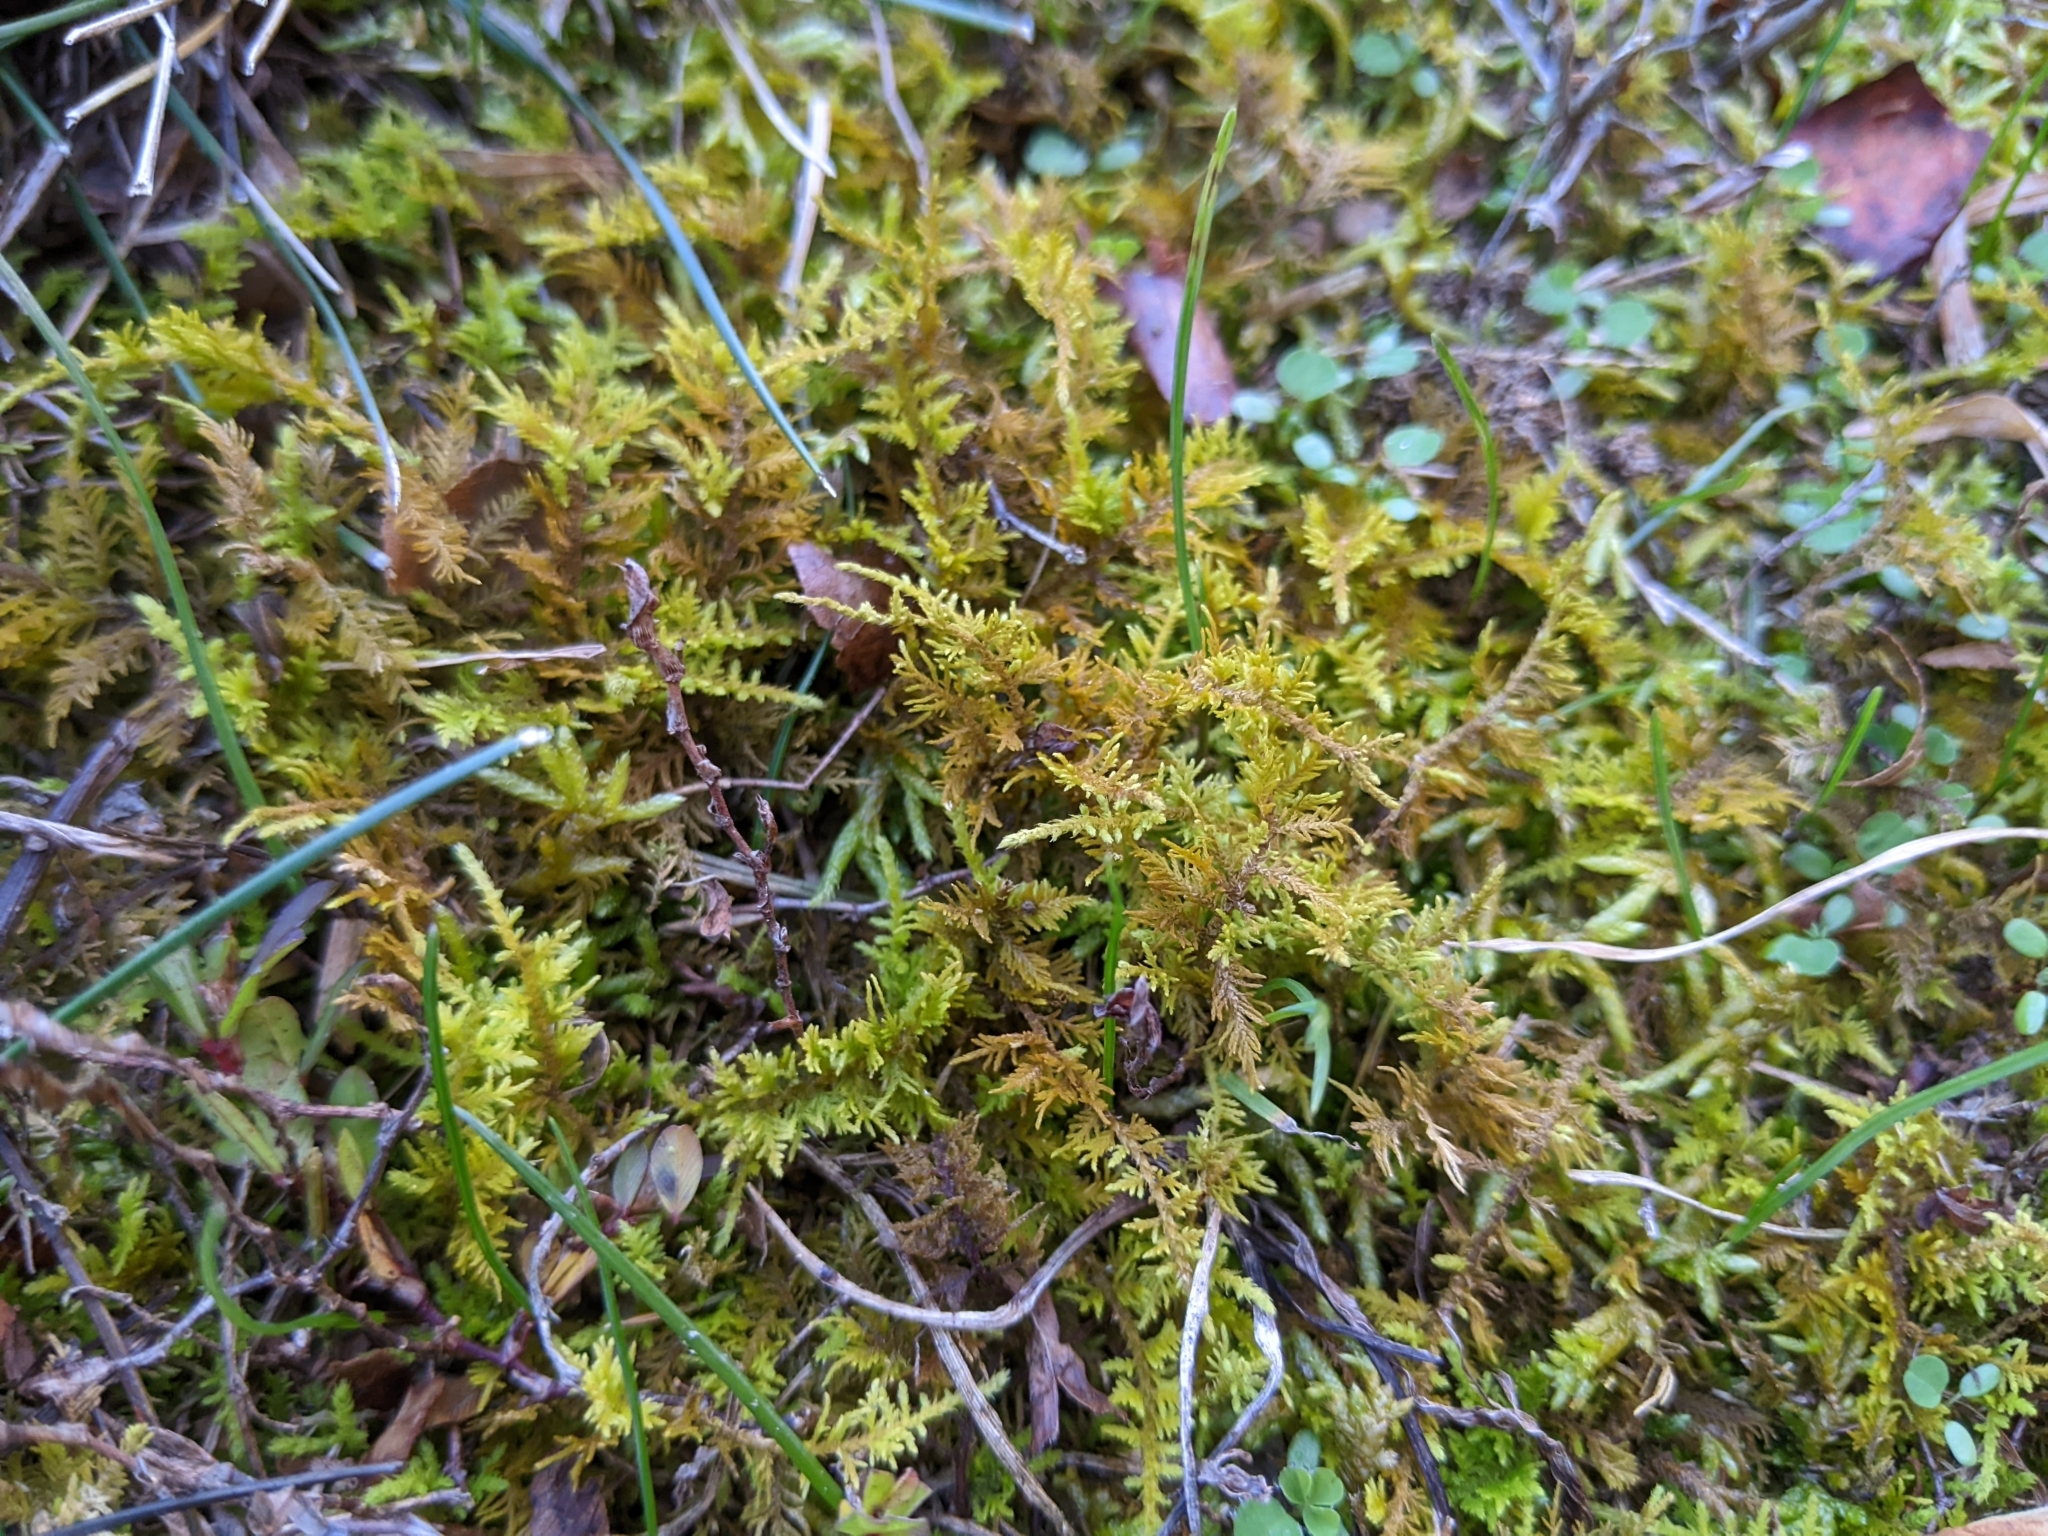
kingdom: Plantae
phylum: Bryophyta
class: Bryopsida
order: Hypnales
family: Thuidiaceae
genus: Thuidium
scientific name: Thuidium delicatulum
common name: Delicate fern moss
